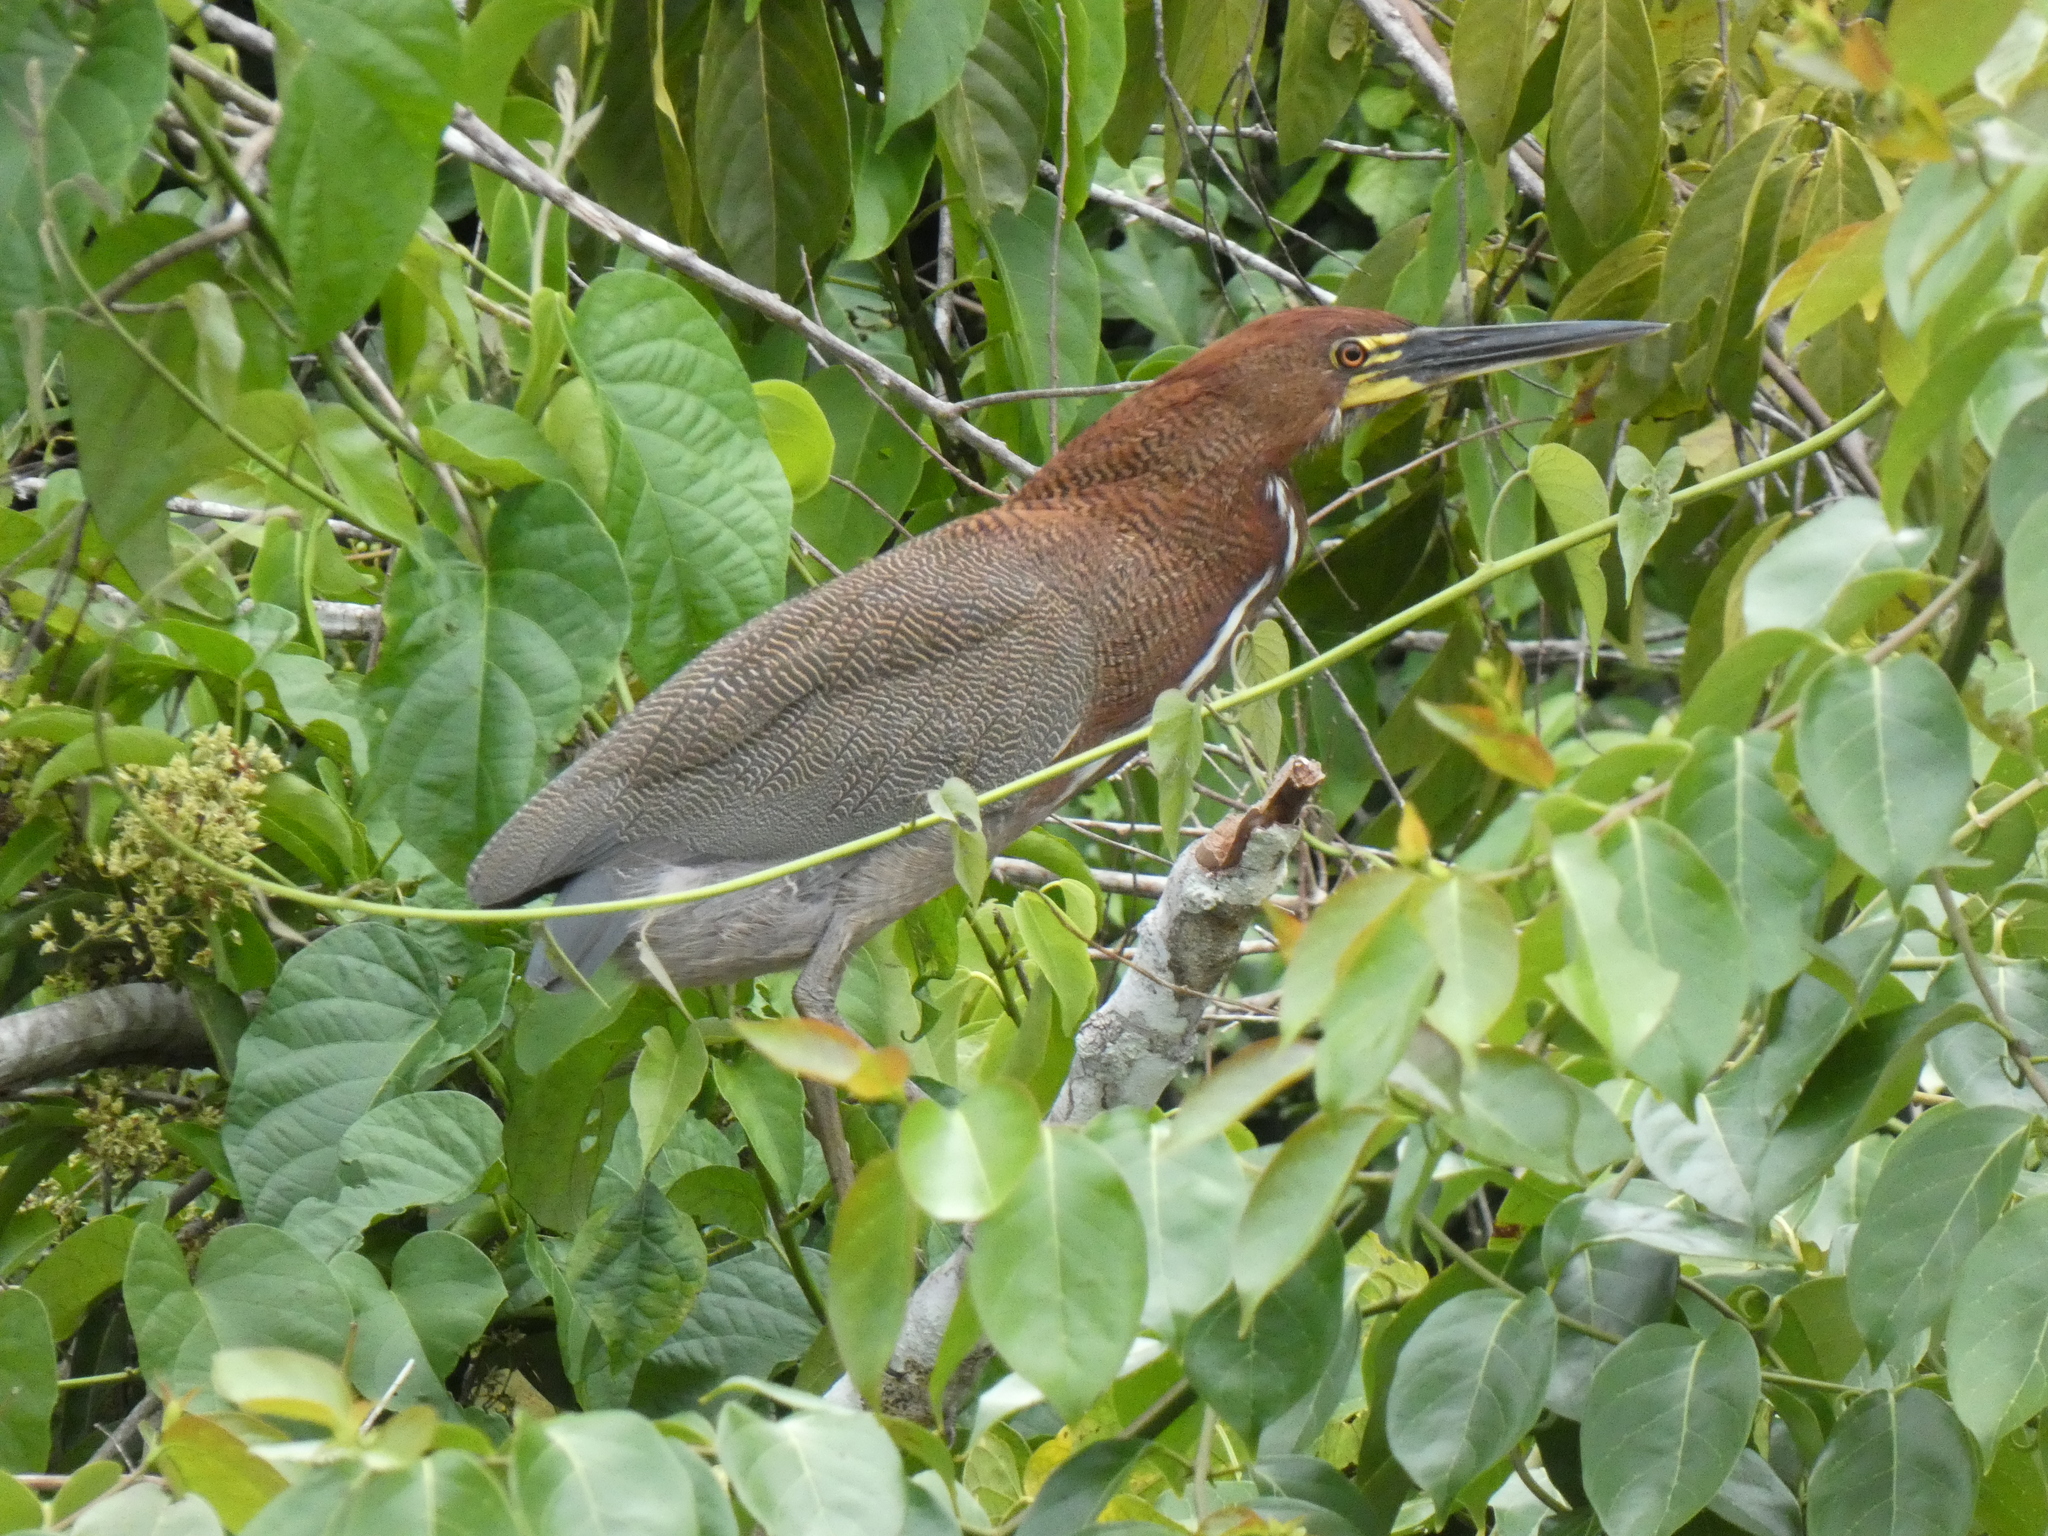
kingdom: Animalia
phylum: Chordata
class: Aves
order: Pelecaniformes
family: Ardeidae
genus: Tigrisoma
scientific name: Tigrisoma lineatum
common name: Rufescent tiger-heron
